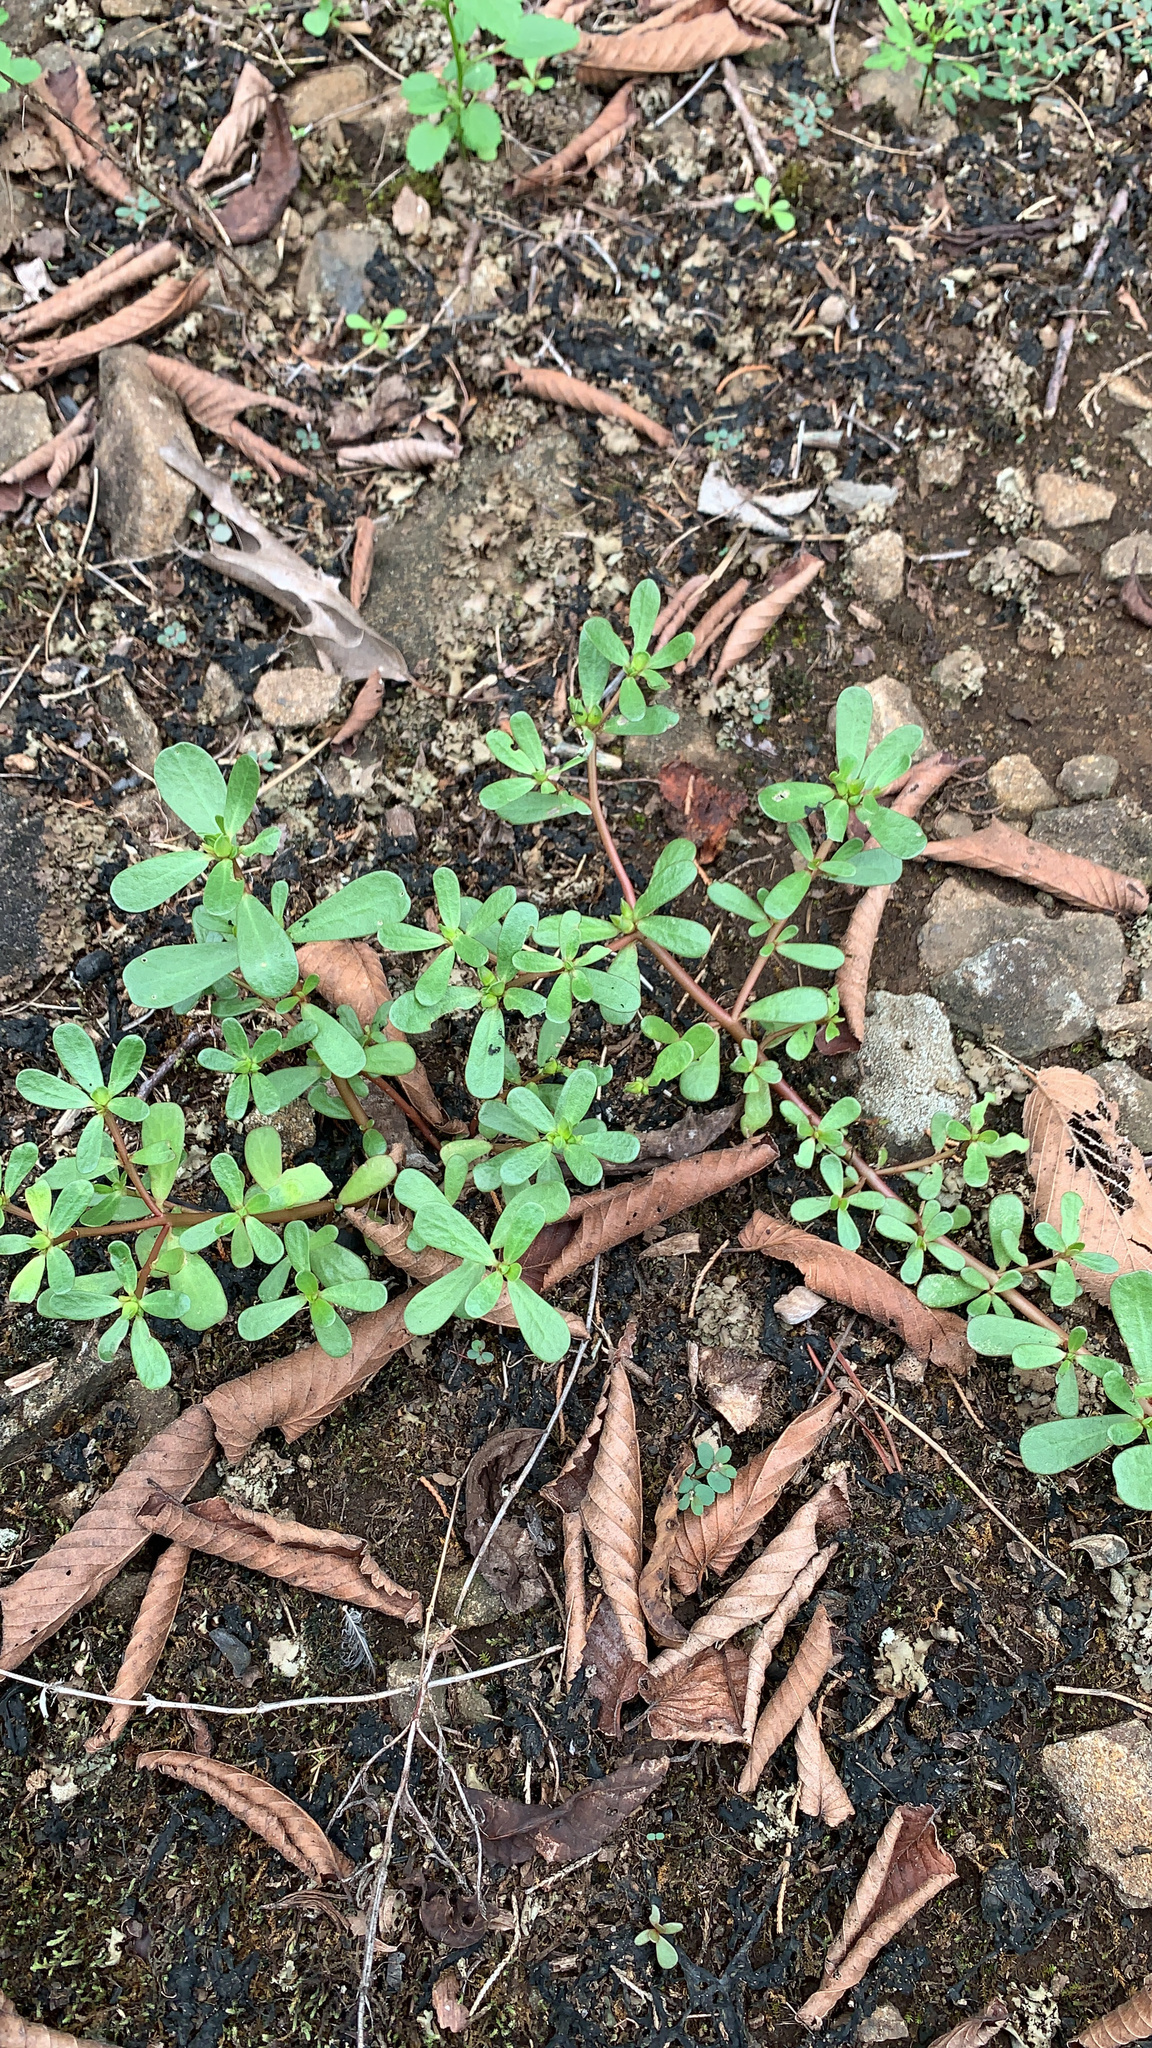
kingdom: Plantae
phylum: Tracheophyta
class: Magnoliopsida
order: Caryophyllales
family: Portulacaceae
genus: Portulaca
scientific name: Portulaca oleracea
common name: Common purslane
